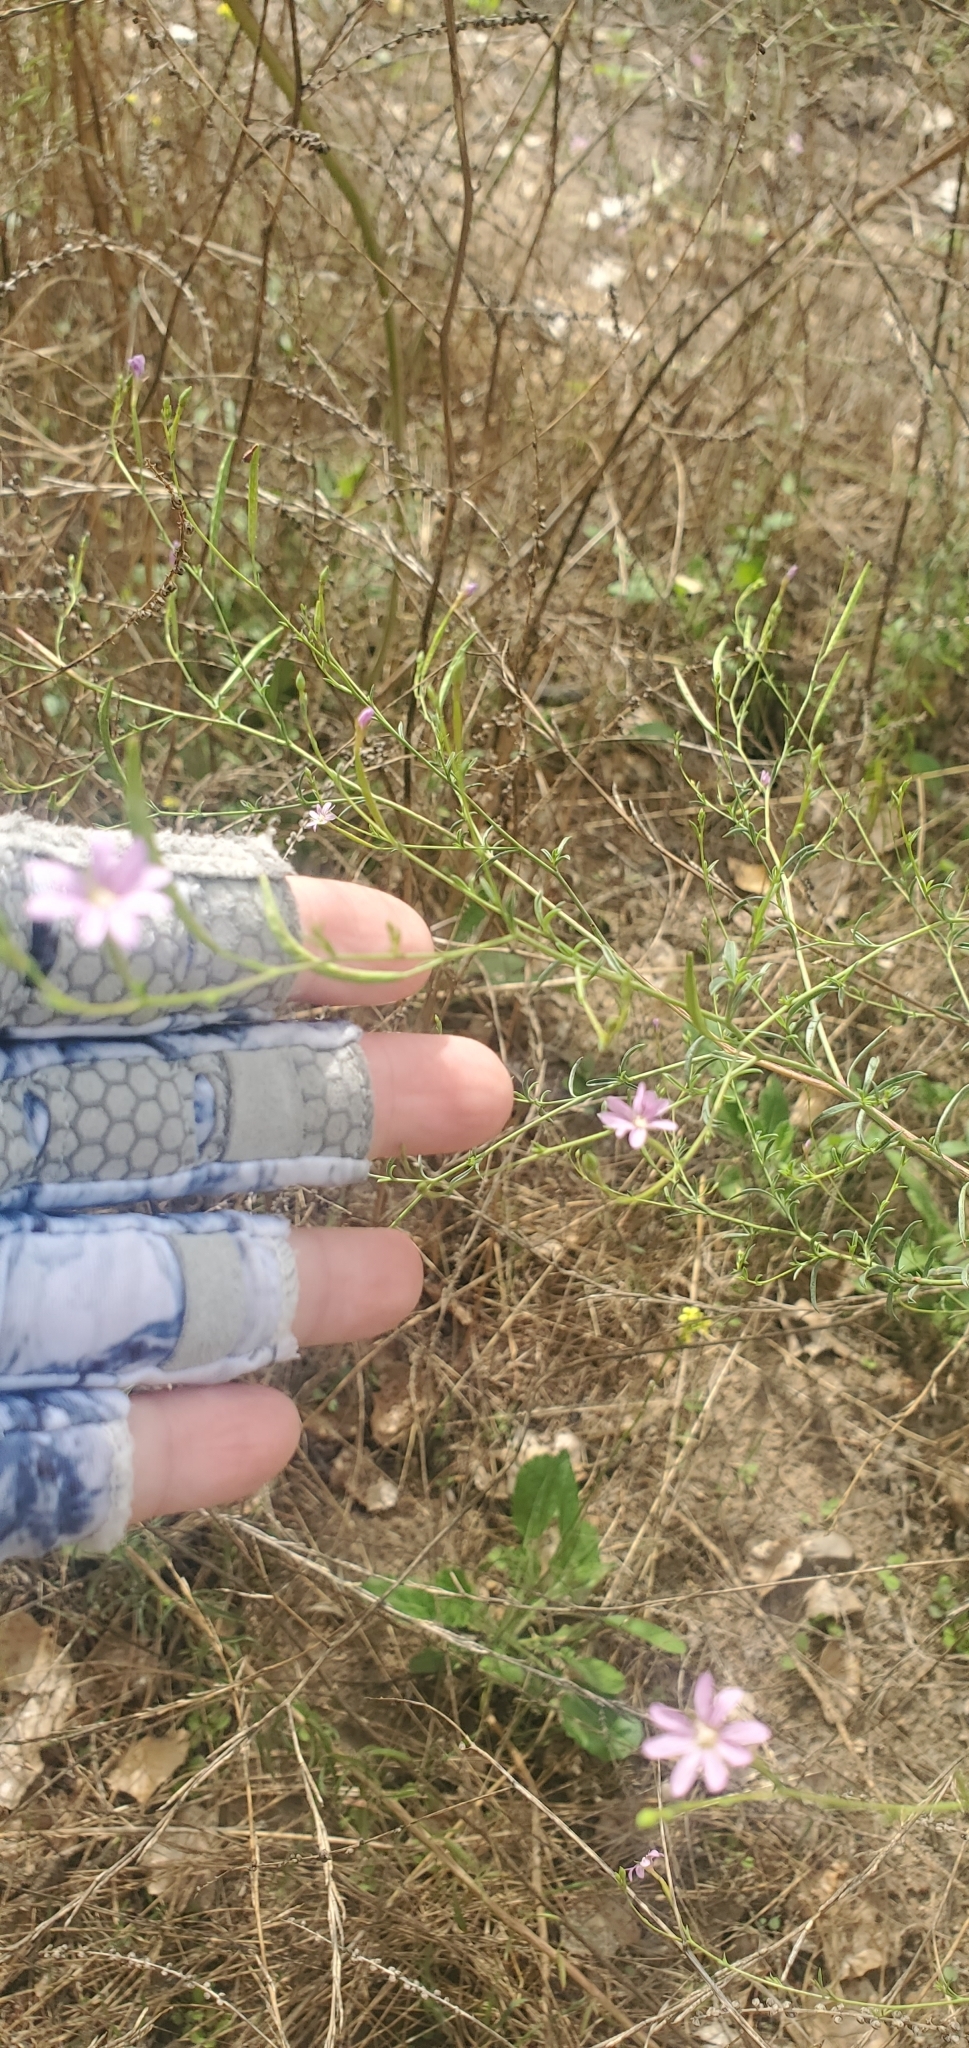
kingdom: Plantae
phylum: Tracheophyta
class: Magnoliopsida
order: Myrtales
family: Onagraceae
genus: Epilobium
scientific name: Epilobium brachycarpum
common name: Annual willowherb
